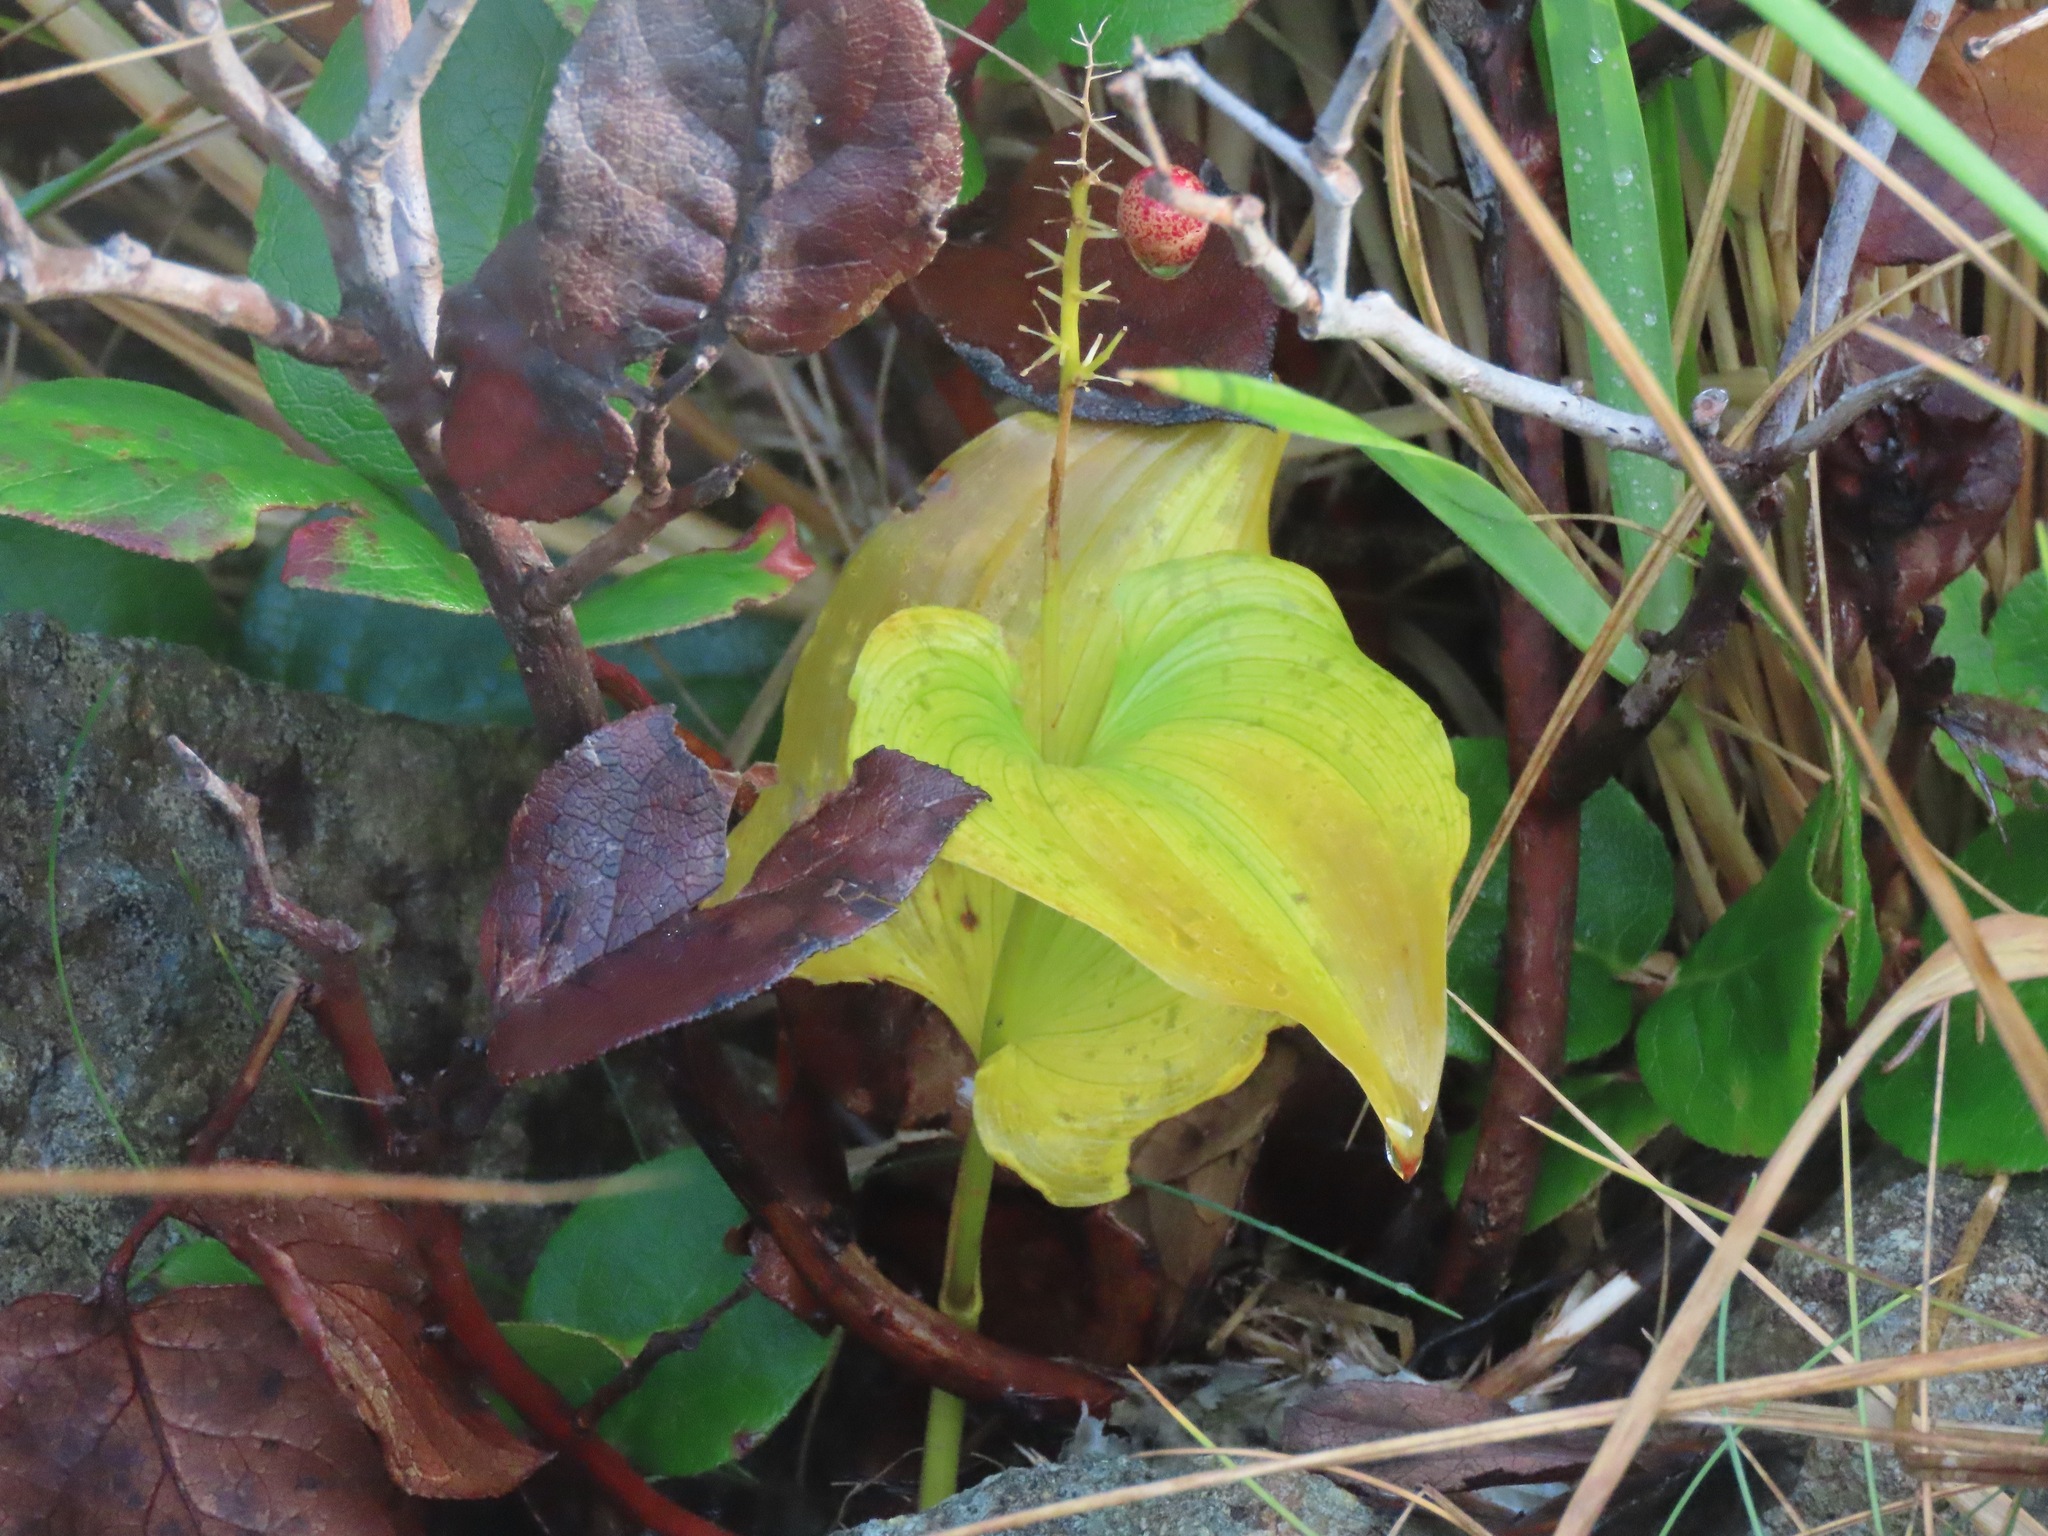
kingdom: Plantae
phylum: Tracheophyta
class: Liliopsida
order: Asparagales
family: Asparagaceae
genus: Maianthemum
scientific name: Maianthemum dilatatum
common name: False lily-of-the-valley
